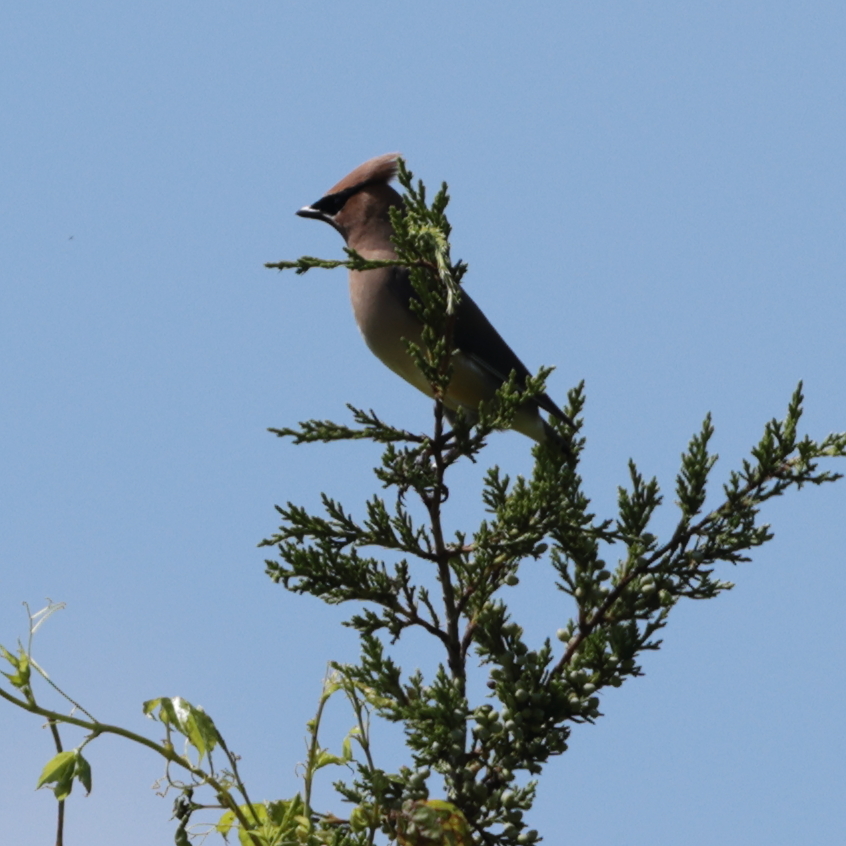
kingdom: Animalia
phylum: Chordata
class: Aves
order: Passeriformes
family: Bombycillidae
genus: Bombycilla
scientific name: Bombycilla cedrorum
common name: Cedar waxwing
